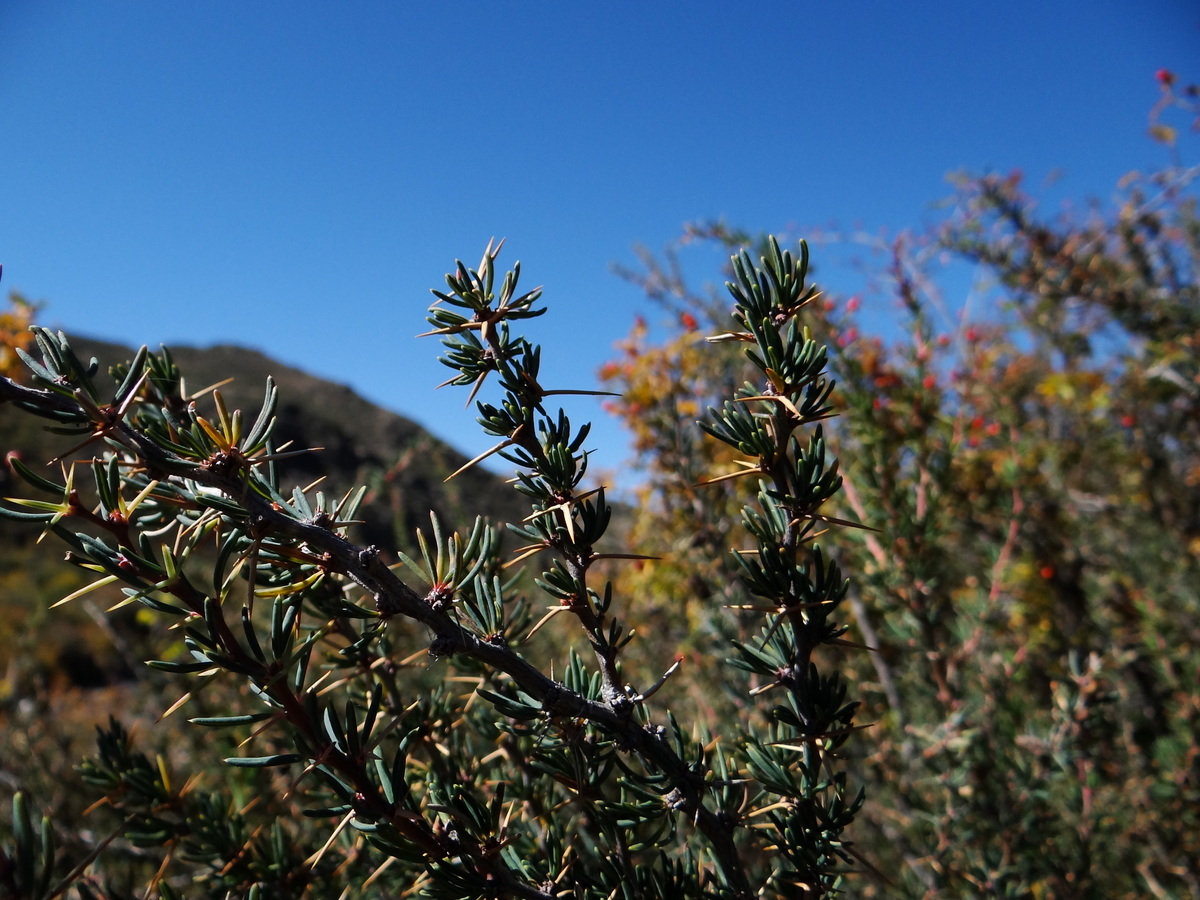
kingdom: Plantae
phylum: Tracheophyta
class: Magnoliopsida
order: Ranunculales
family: Berberidaceae
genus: Berberis
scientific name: Berberis empetrifolia
